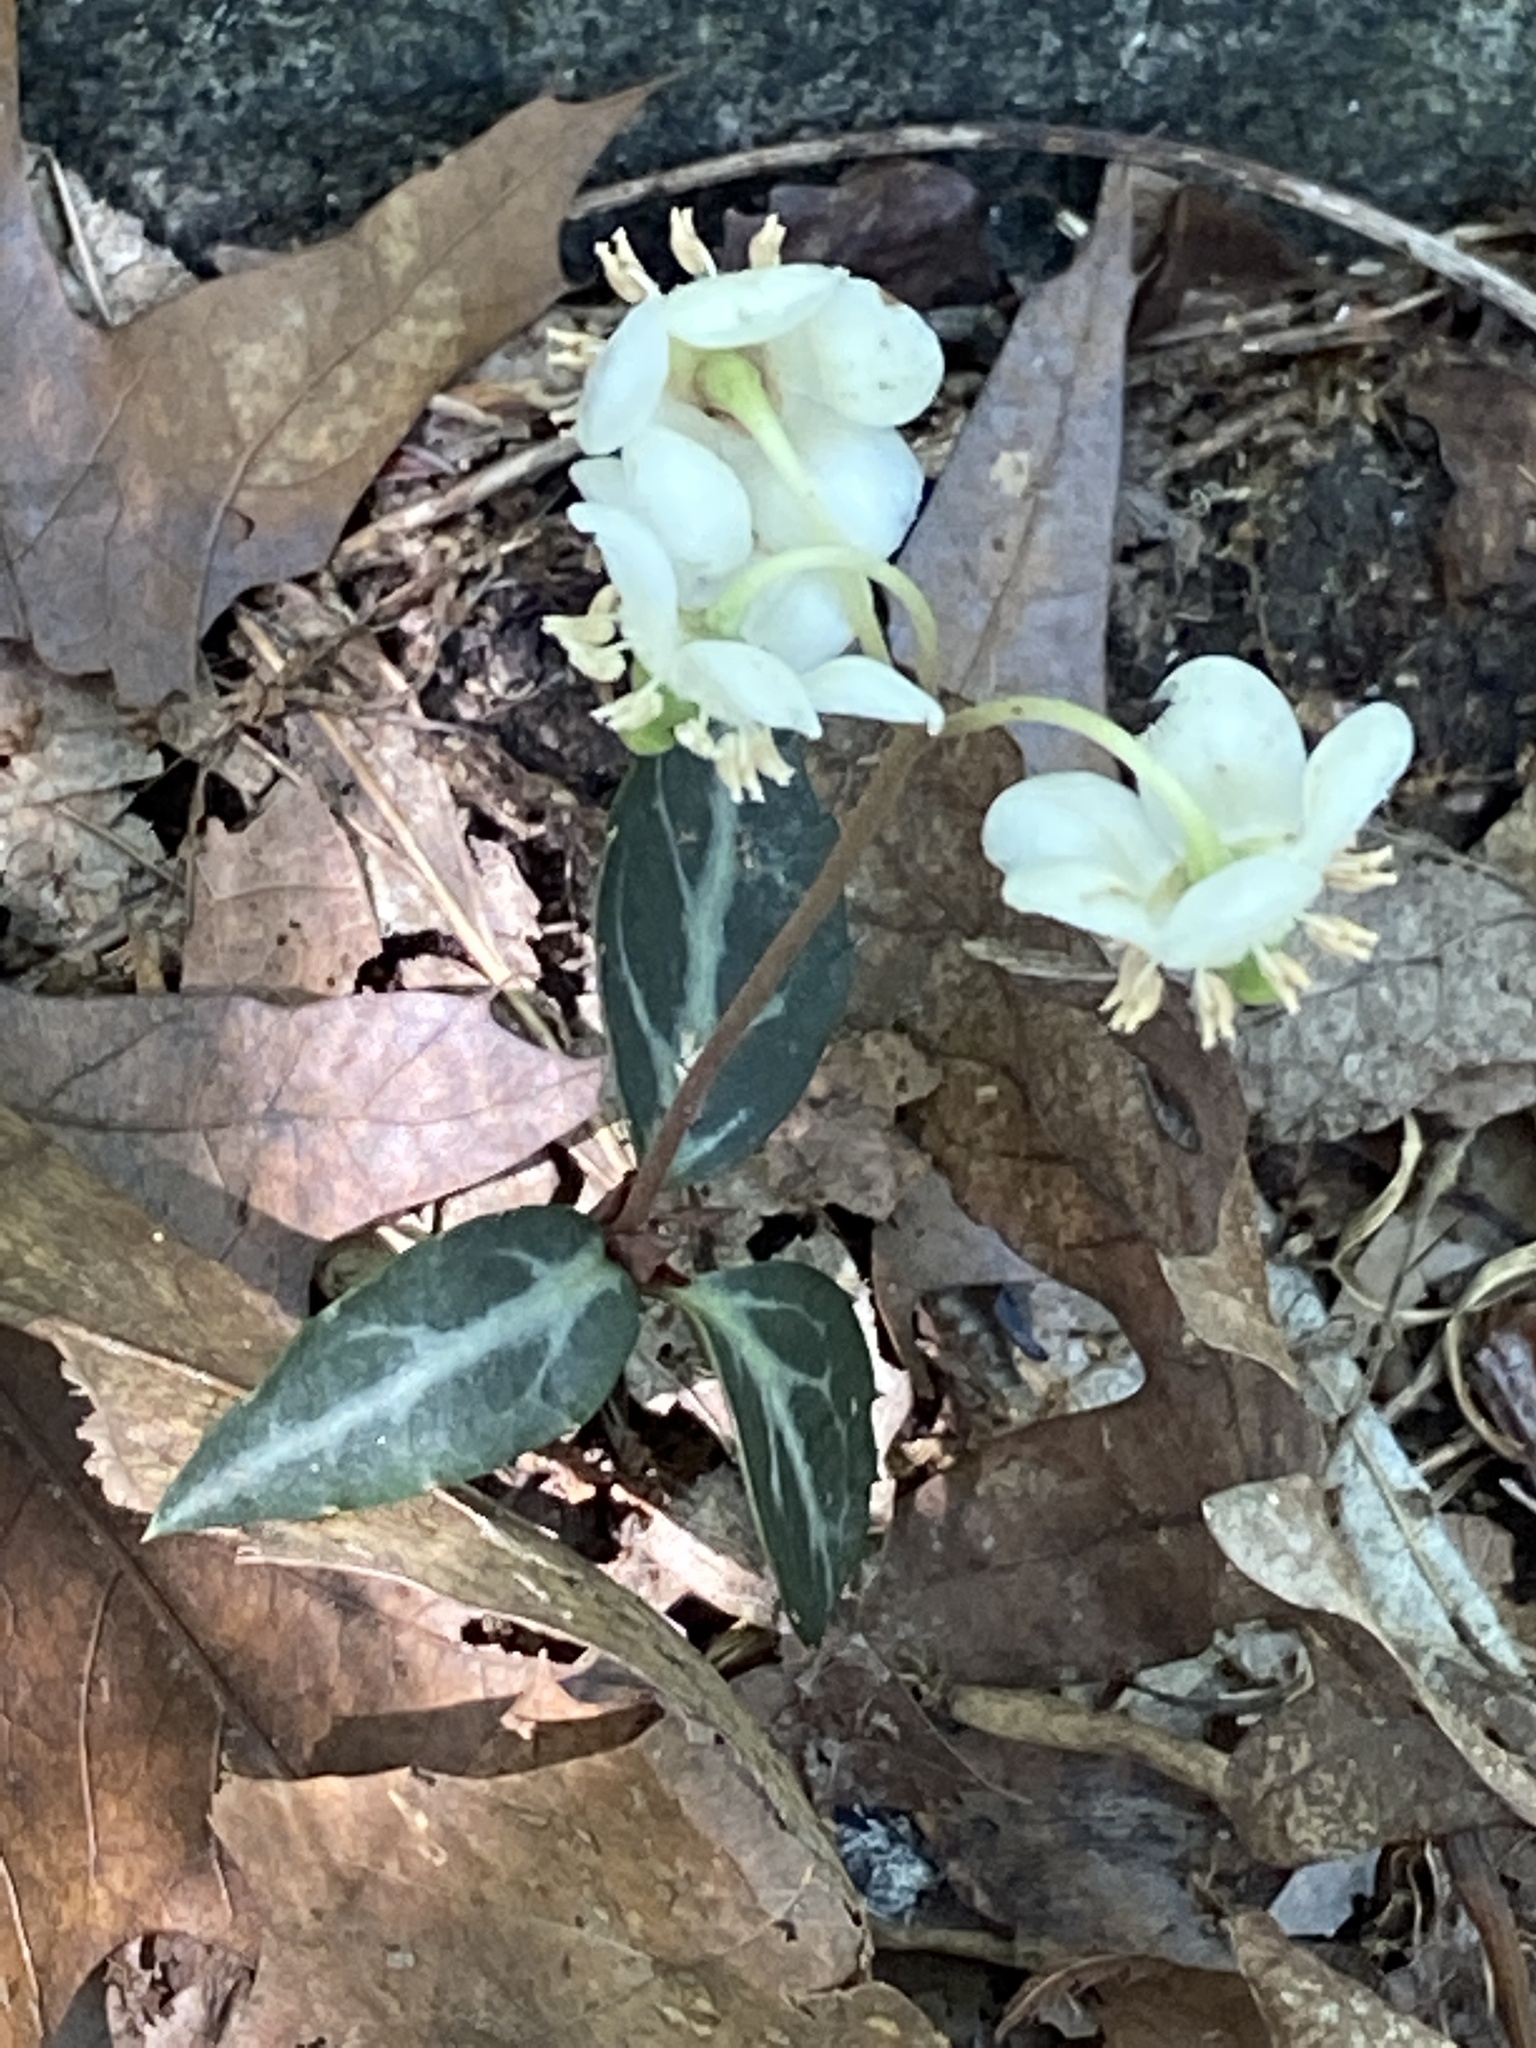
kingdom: Plantae
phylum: Tracheophyta
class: Magnoliopsida
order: Ericales
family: Ericaceae
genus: Chimaphila
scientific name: Chimaphila maculata
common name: Spotted pipsissewa
